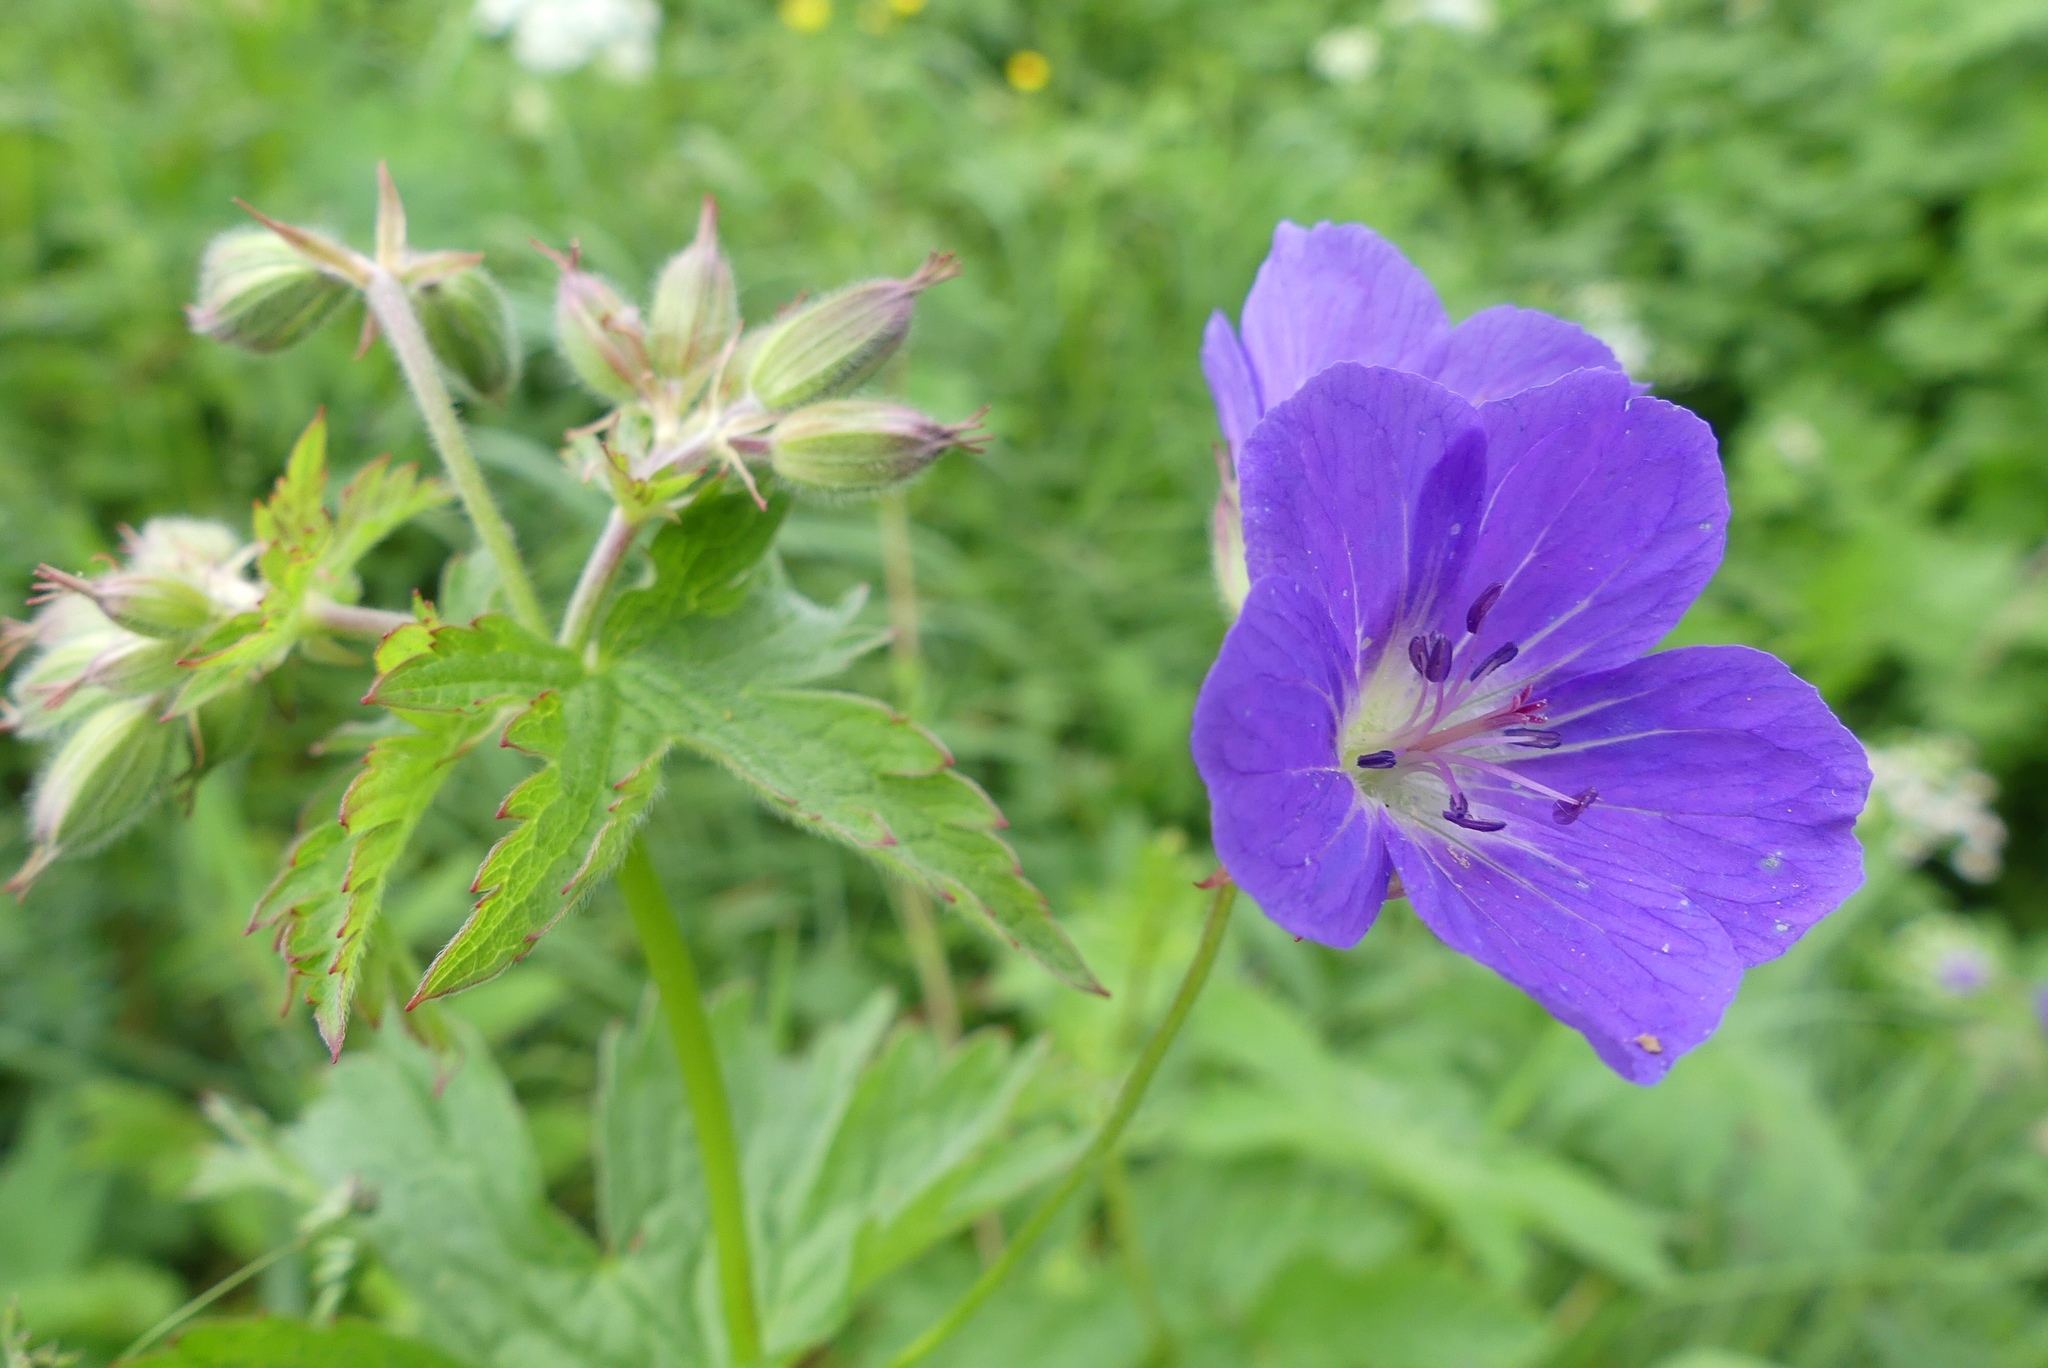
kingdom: Plantae
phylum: Tracheophyta
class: Magnoliopsida
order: Geraniales
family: Geraniaceae
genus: Geranium
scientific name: Geranium sylvaticum
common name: Wood crane's-bill
